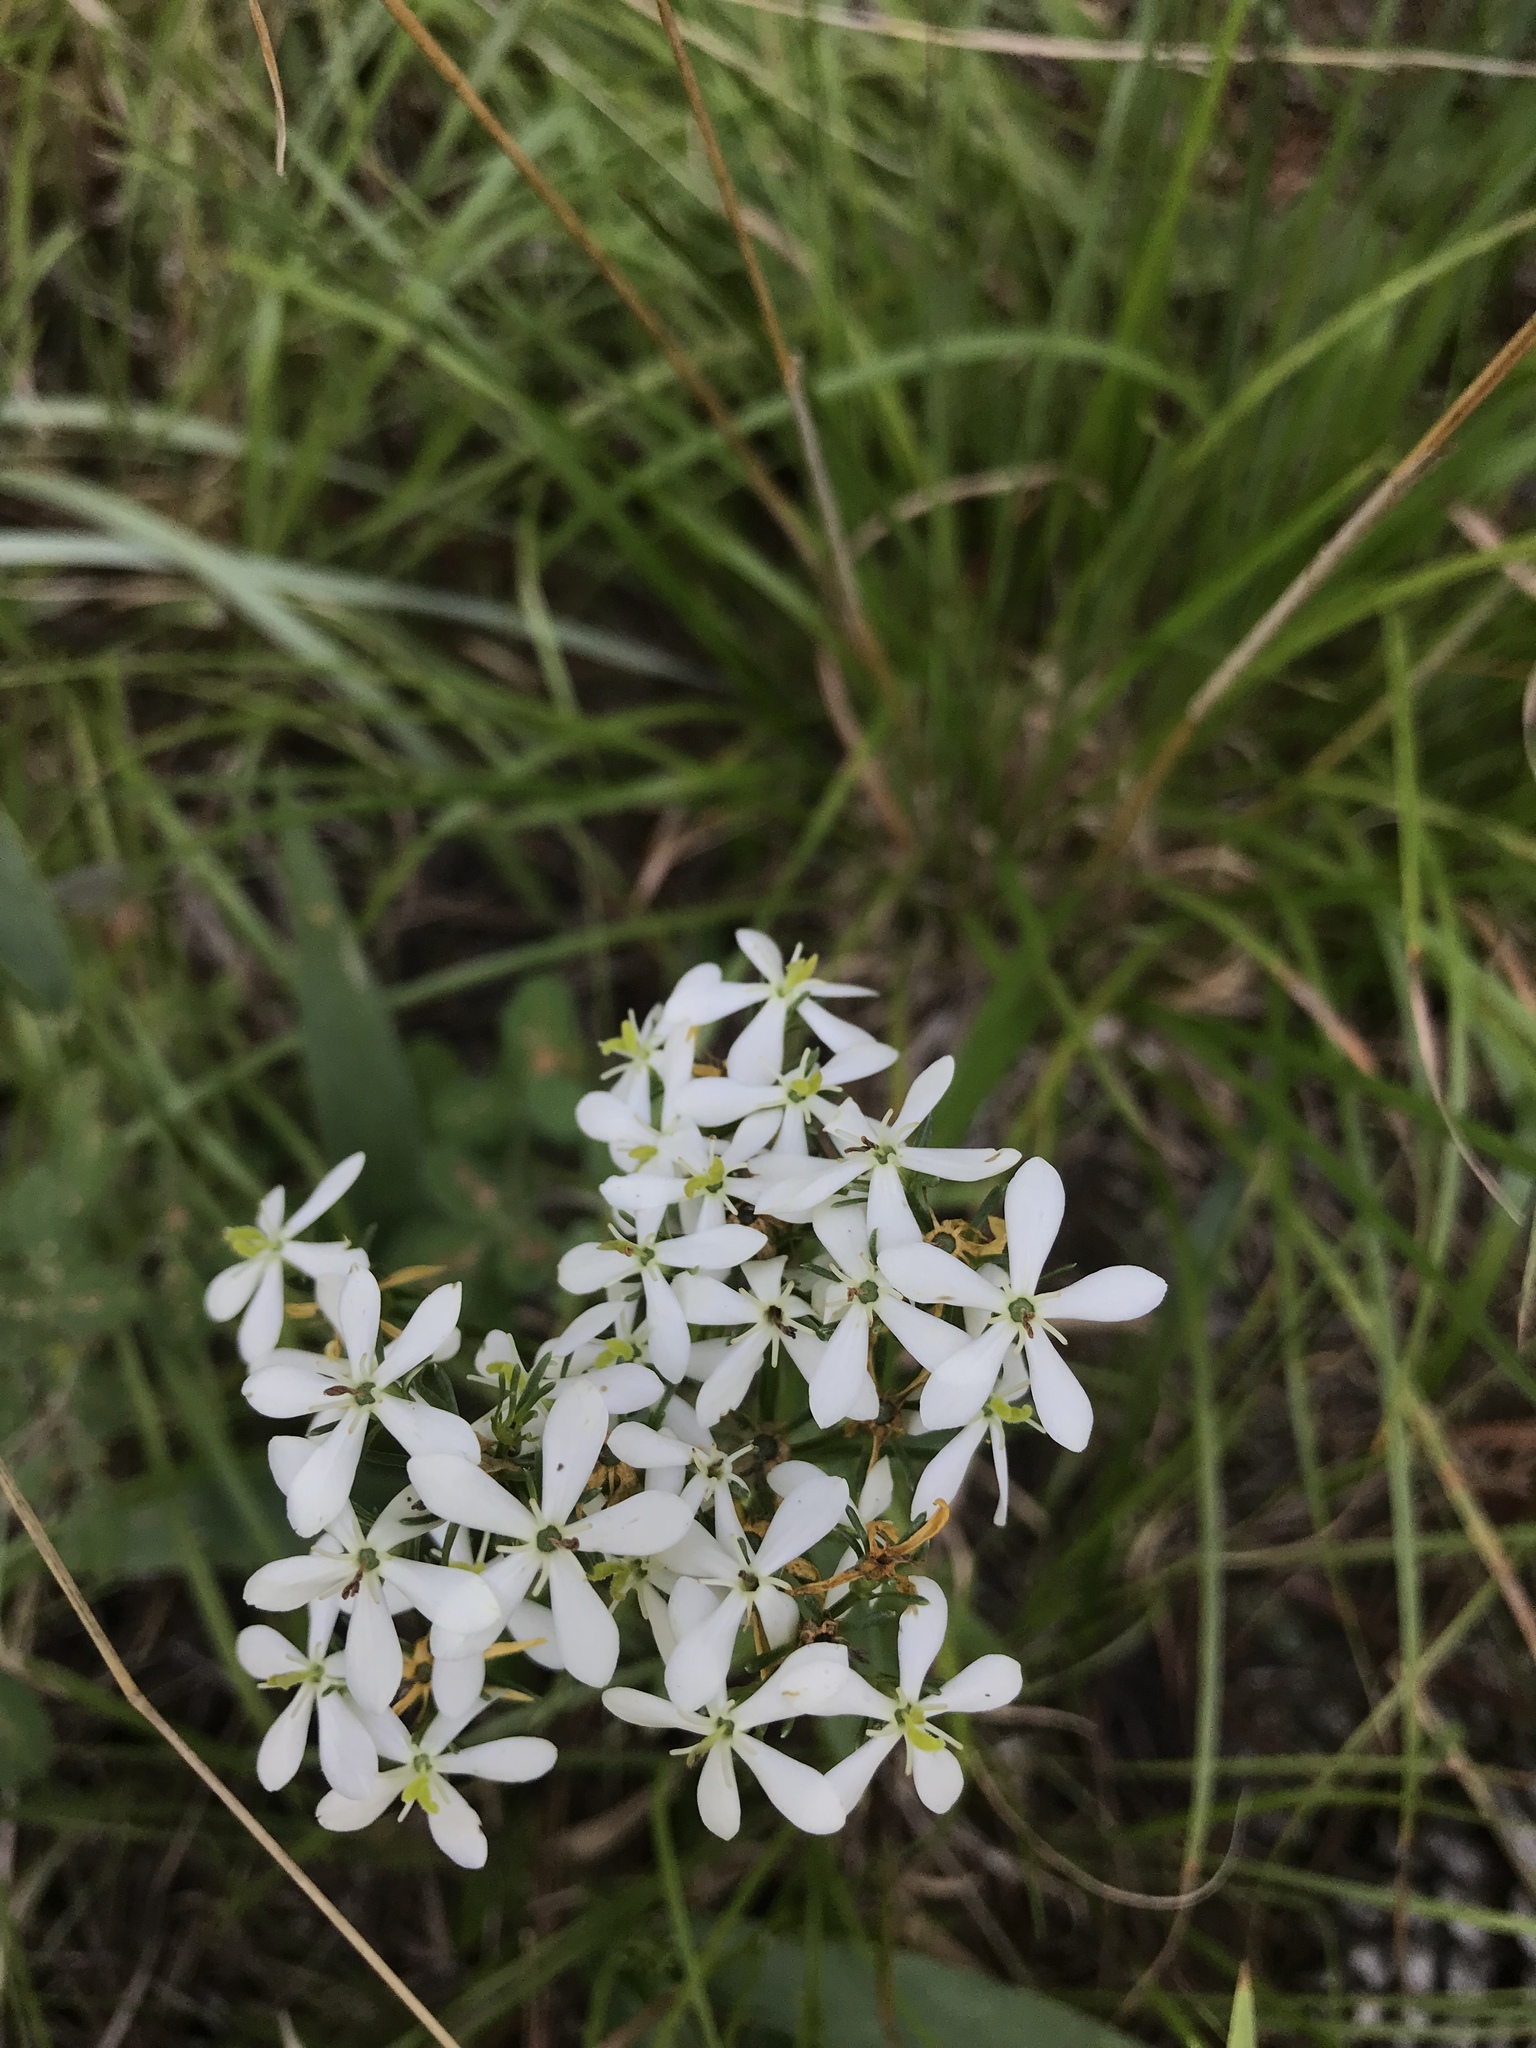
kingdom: Plantae
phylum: Tracheophyta
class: Magnoliopsida
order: Gentianales
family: Gentianaceae
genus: Sabatia
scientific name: Sabatia quadrangula
